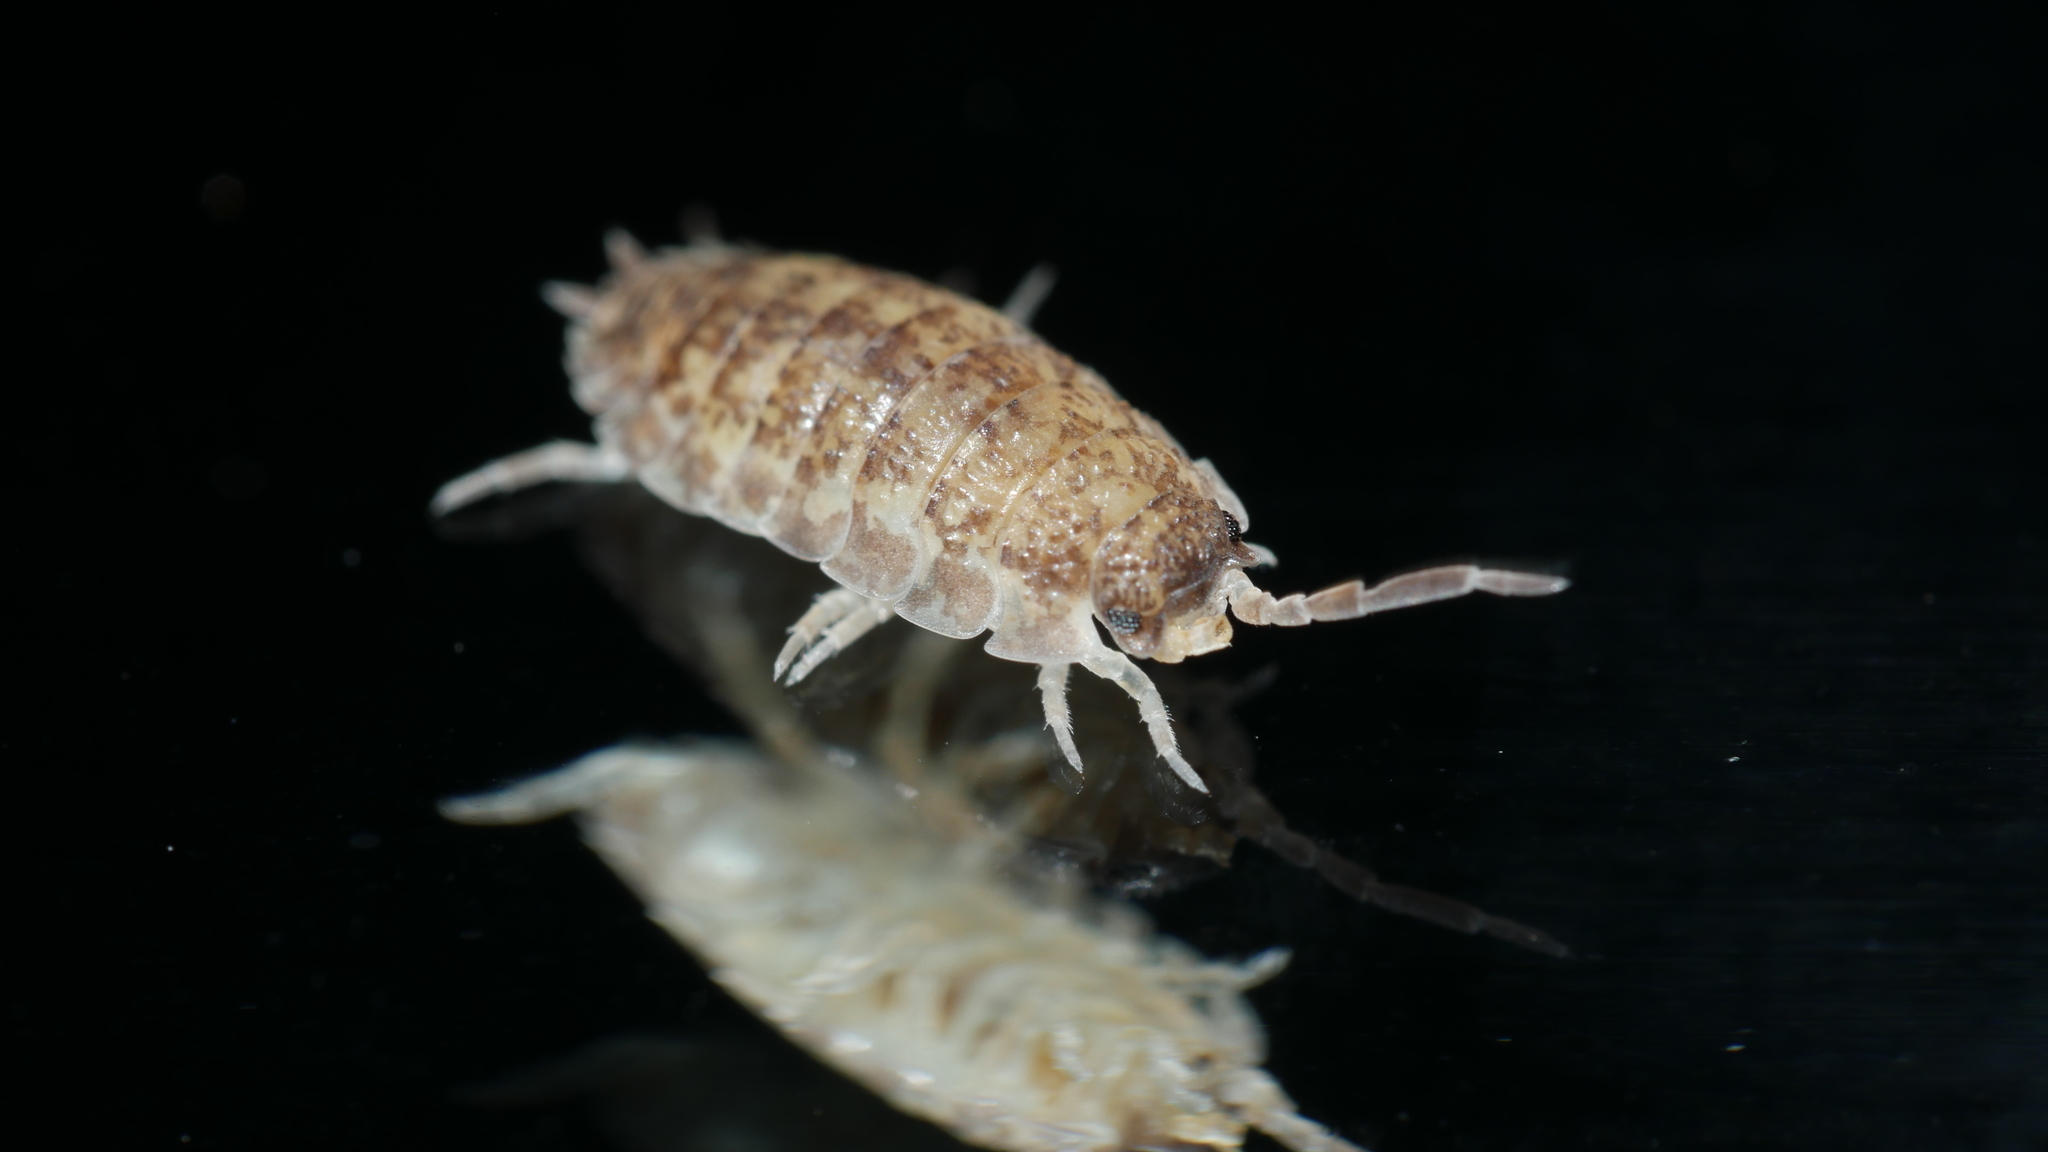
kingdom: Animalia
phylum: Arthropoda
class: Malacostraca
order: Isopoda
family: Porcellionidae
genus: Porcellio
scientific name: Porcellio scaber
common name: Common rough woodlouse
